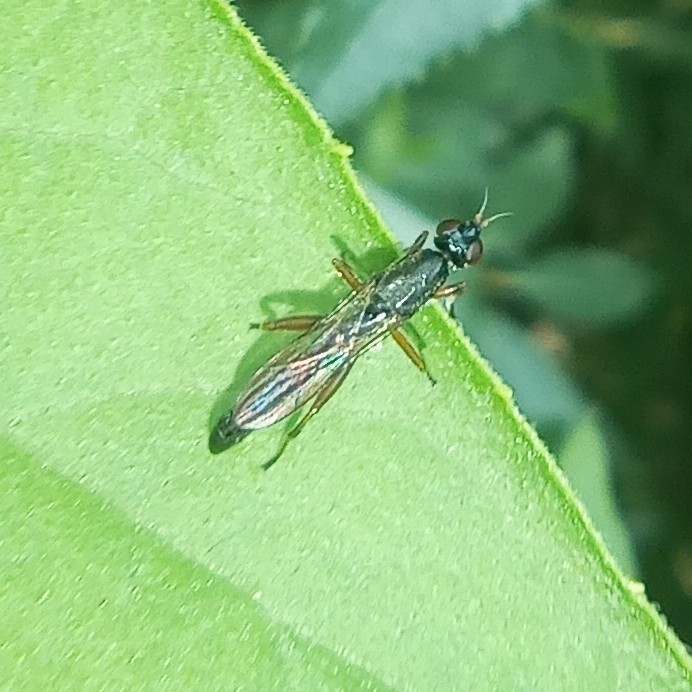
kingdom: Animalia
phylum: Arthropoda
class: Insecta
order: Diptera
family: Megamerinidae
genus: Megamerina
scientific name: Megamerina dolium
